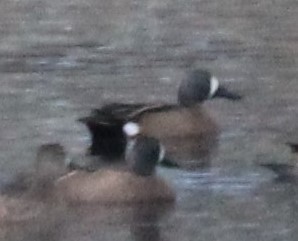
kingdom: Animalia
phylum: Chordata
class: Aves
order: Anseriformes
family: Anatidae
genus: Spatula
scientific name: Spatula discors
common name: Blue-winged teal
